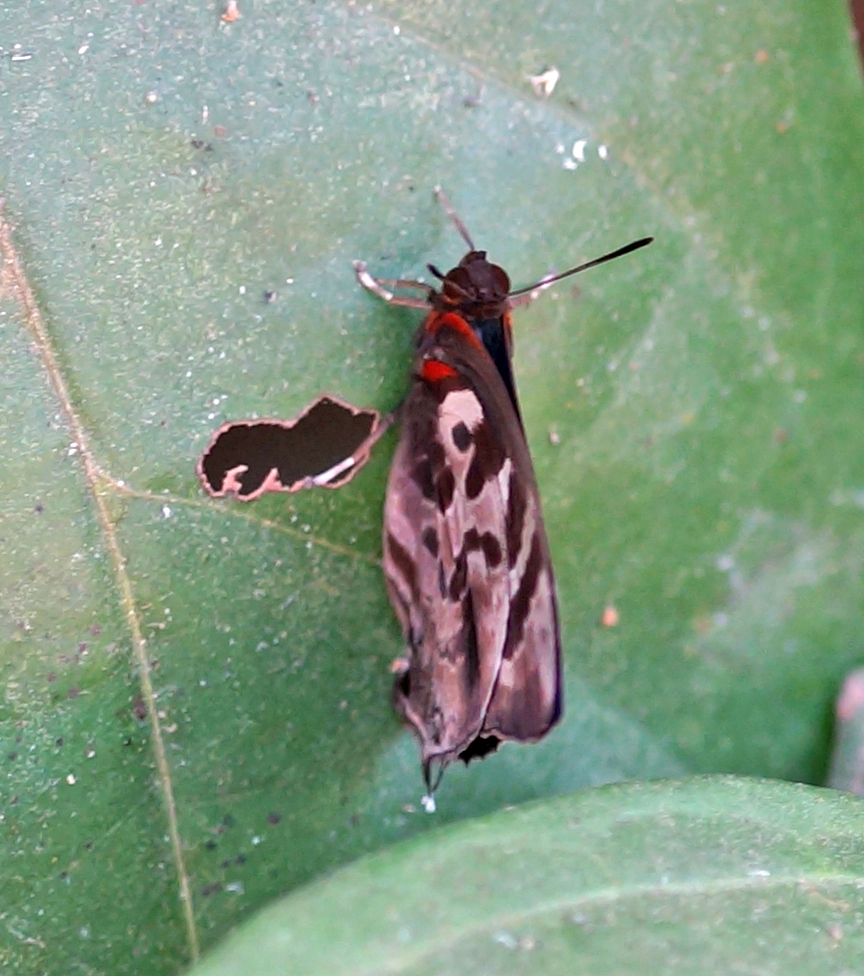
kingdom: Animalia
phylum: Arthropoda
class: Insecta
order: Lepidoptera
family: Lycaenidae
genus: Flos
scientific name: Flos
